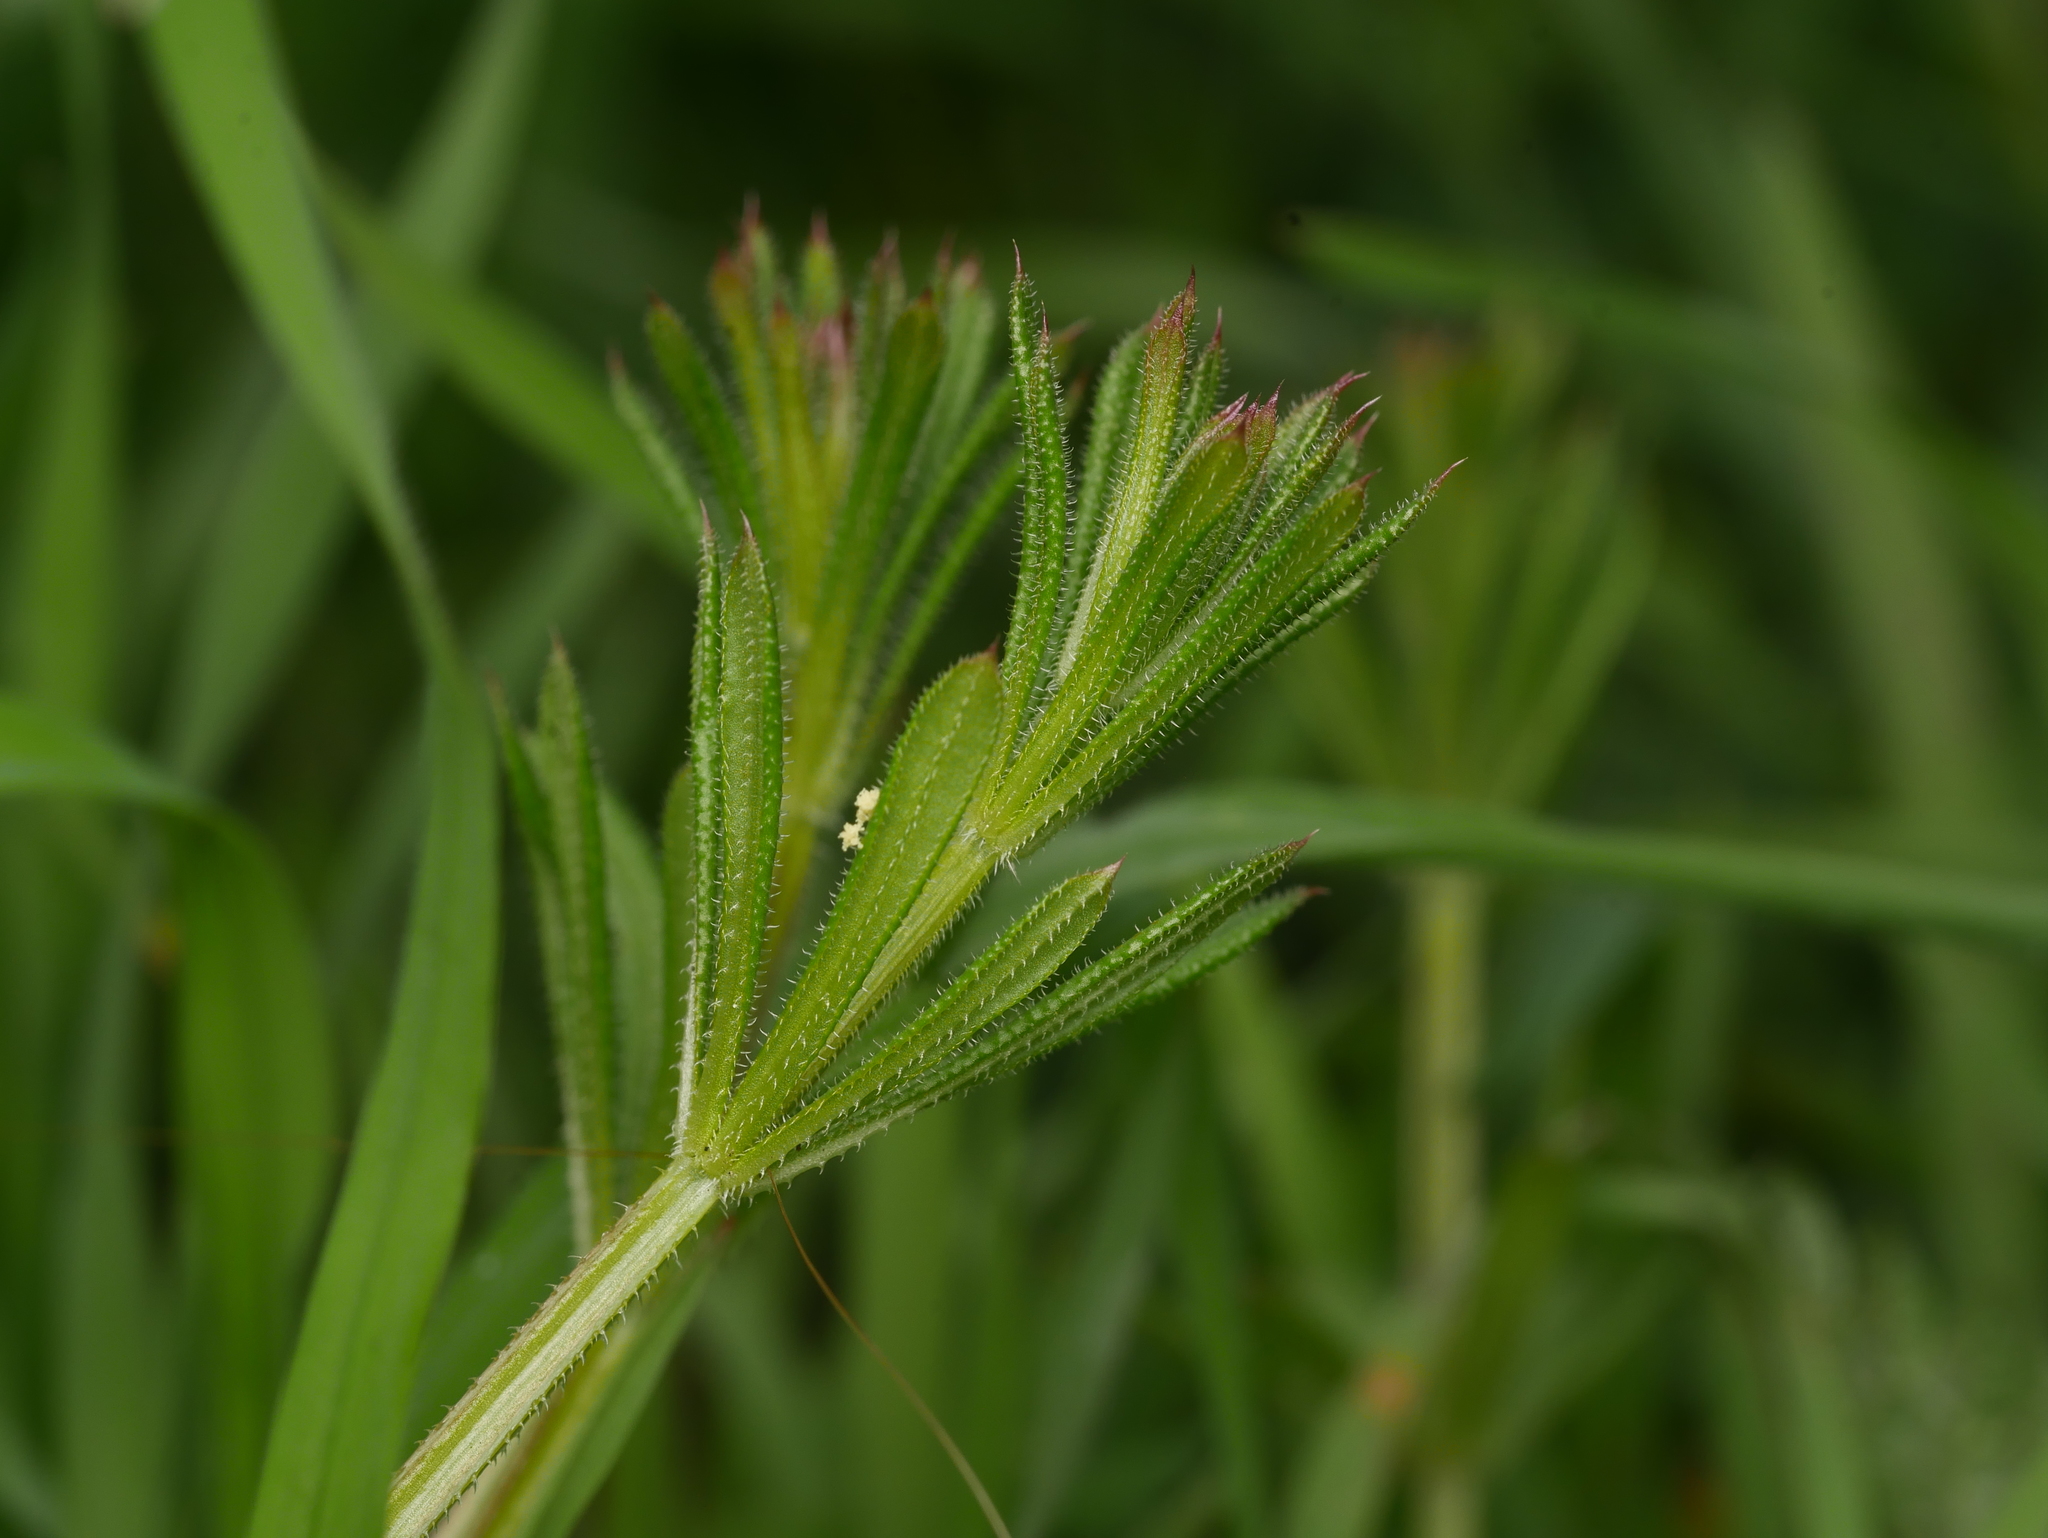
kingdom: Plantae
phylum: Tracheophyta
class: Magnoliopsida
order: Gentianales
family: Rubiaceae
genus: Galium
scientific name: Galium aparine
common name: Cleavers
